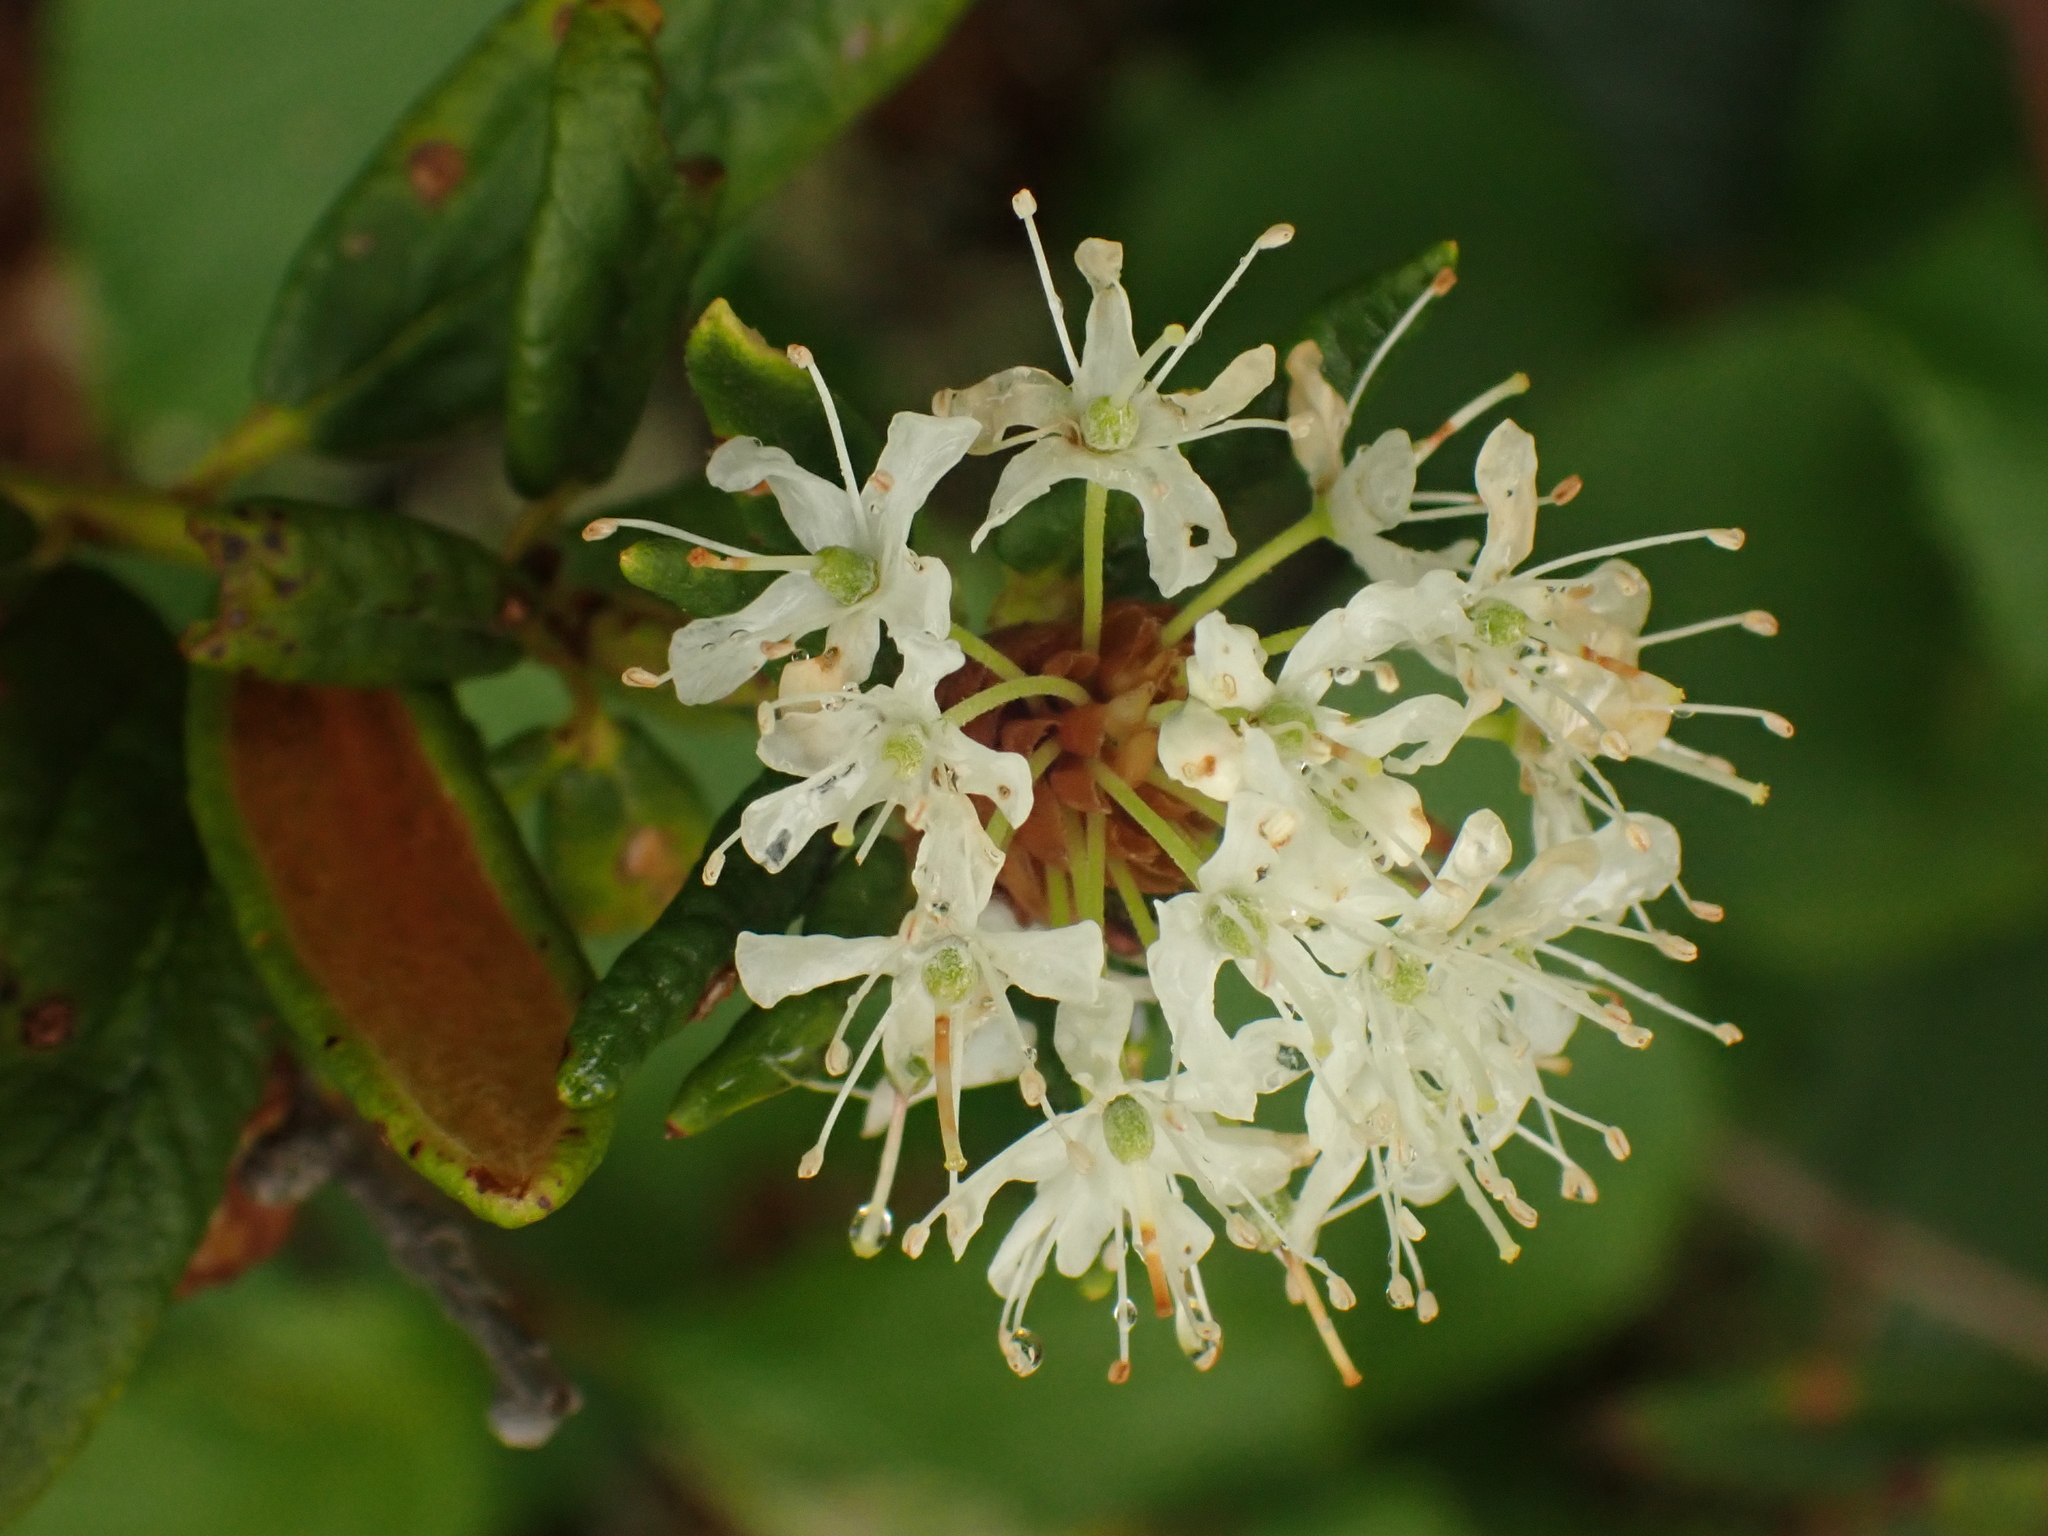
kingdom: Plantae
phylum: Tracheophyta
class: Magnoliopsida
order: Ericales
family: Ericaceae
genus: Rhododendron
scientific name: Rhododendron groenlandicum
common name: Bog labrador tea
